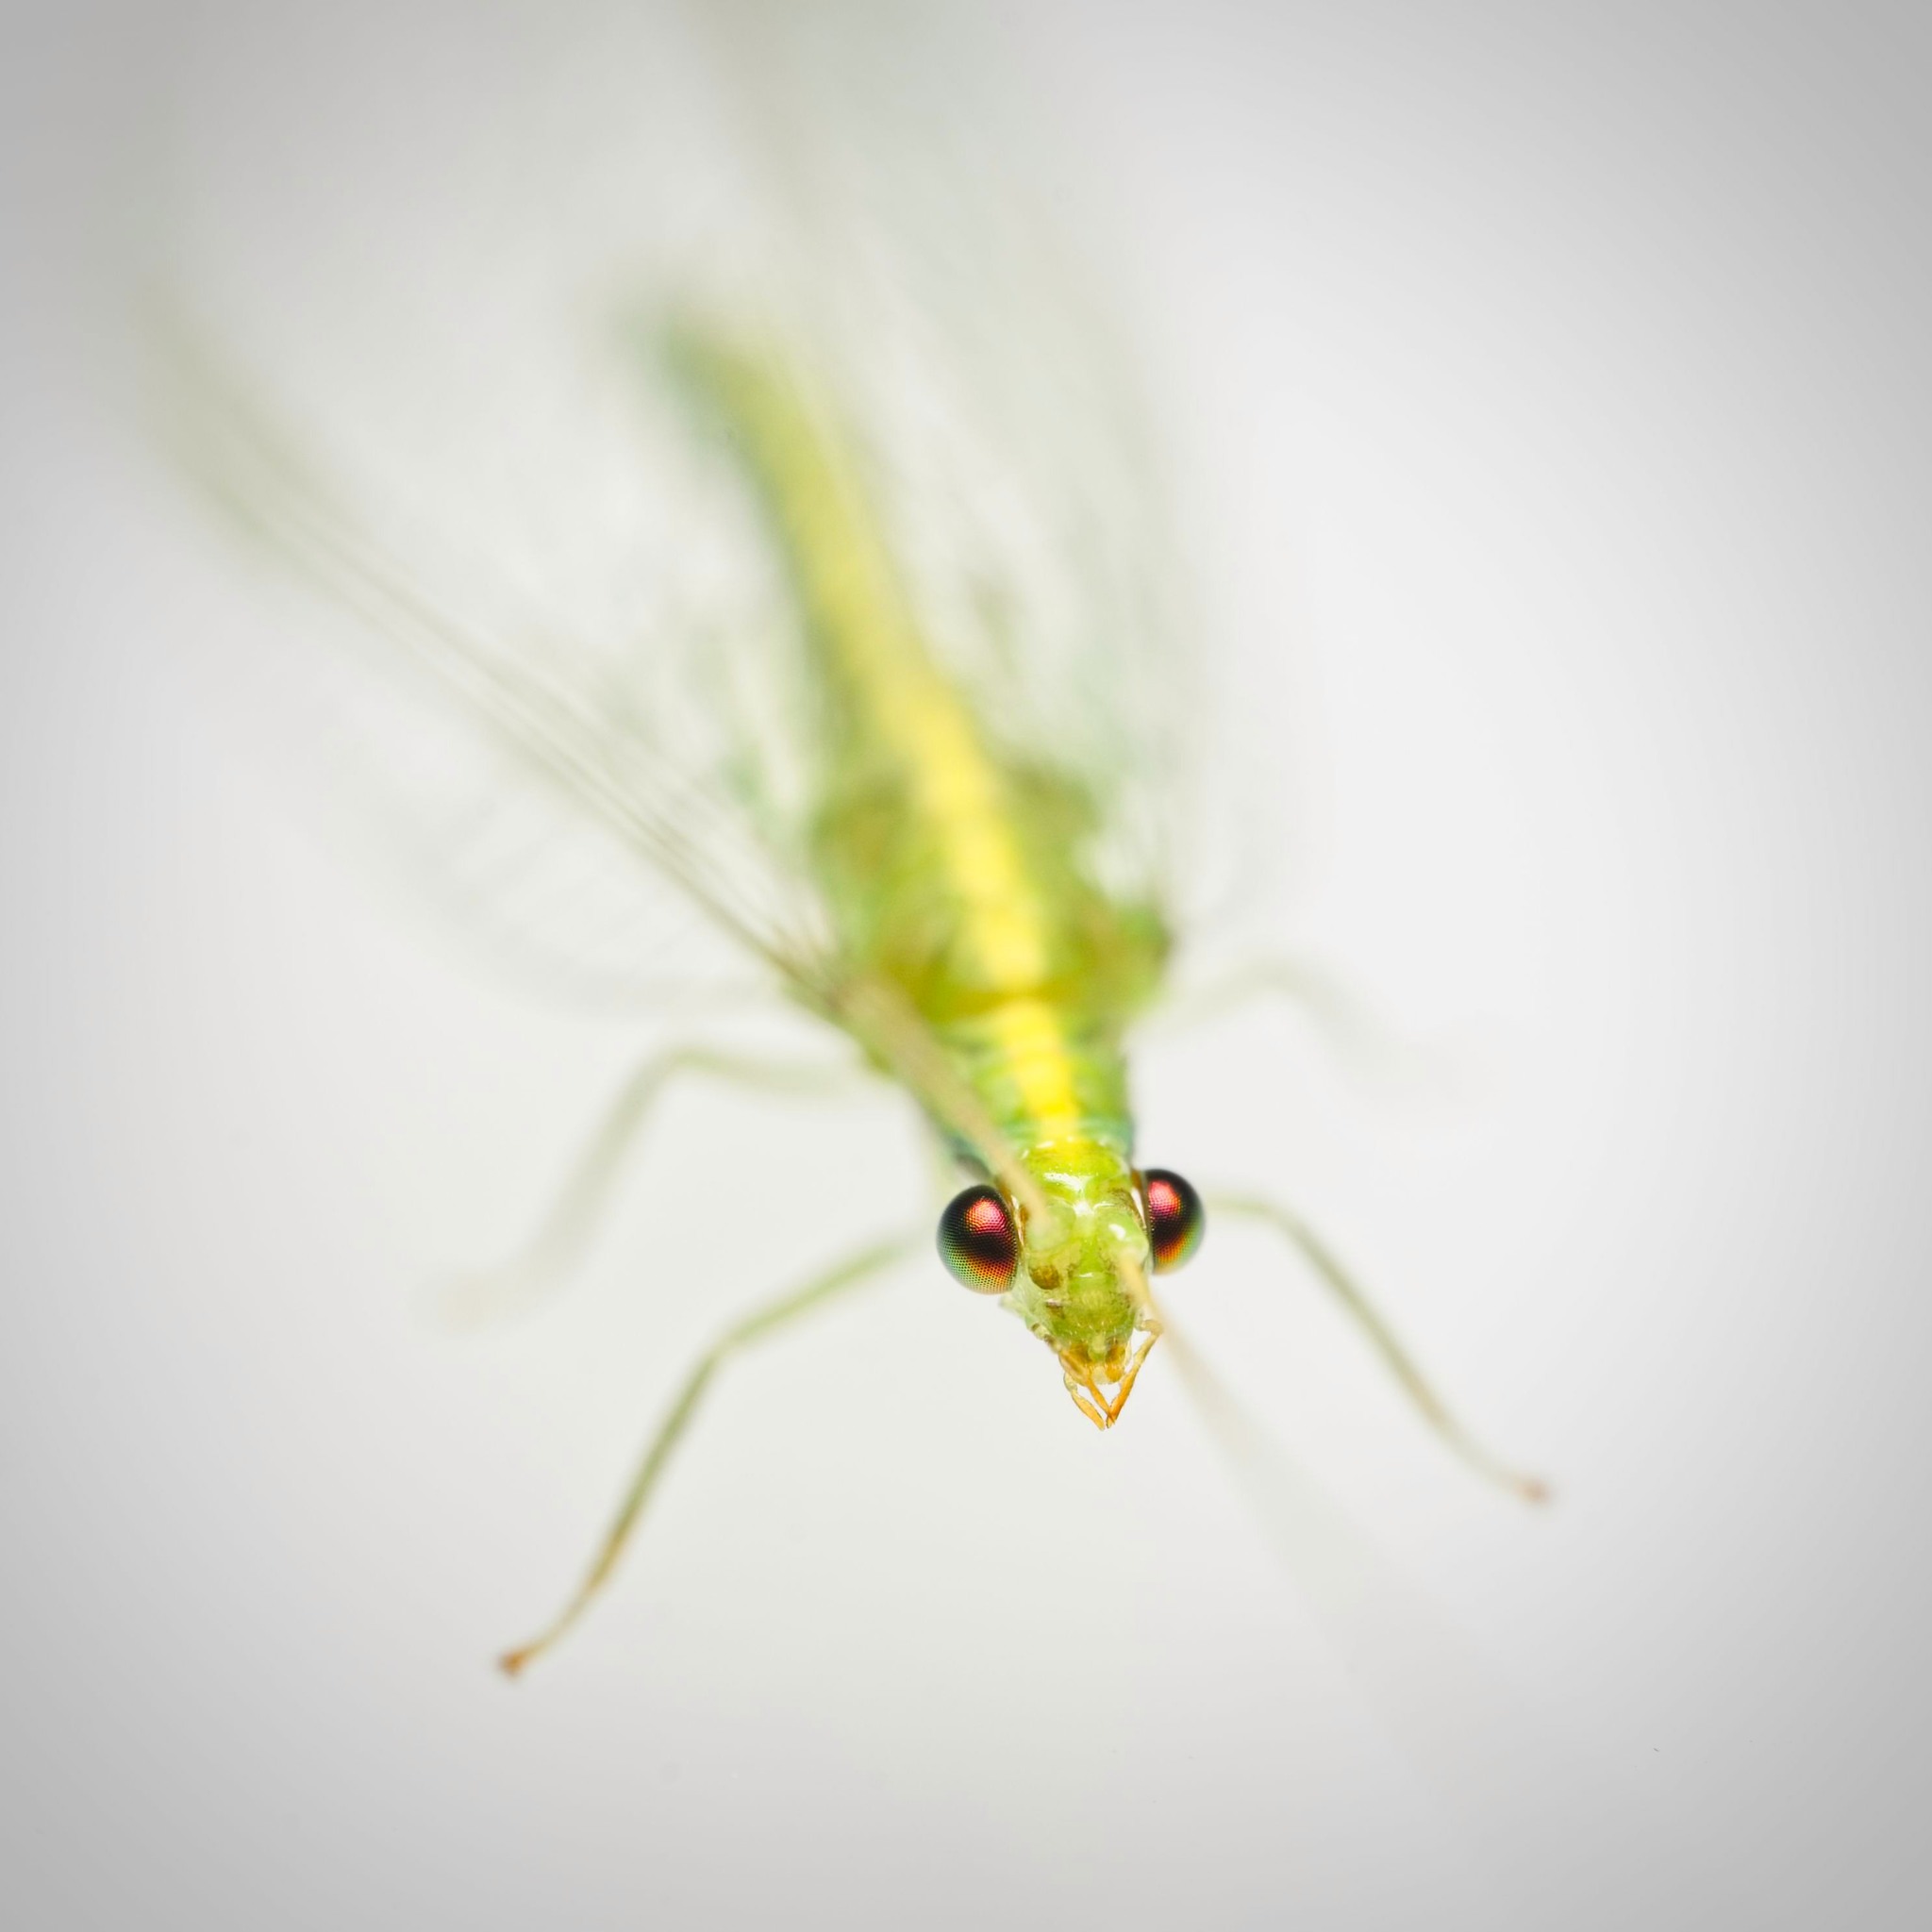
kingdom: Animalia
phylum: Arthropoda
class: Insecta
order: Neuroptera
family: Chrysopidae
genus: Mallada
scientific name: Mallada basalis
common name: Green lacewing
